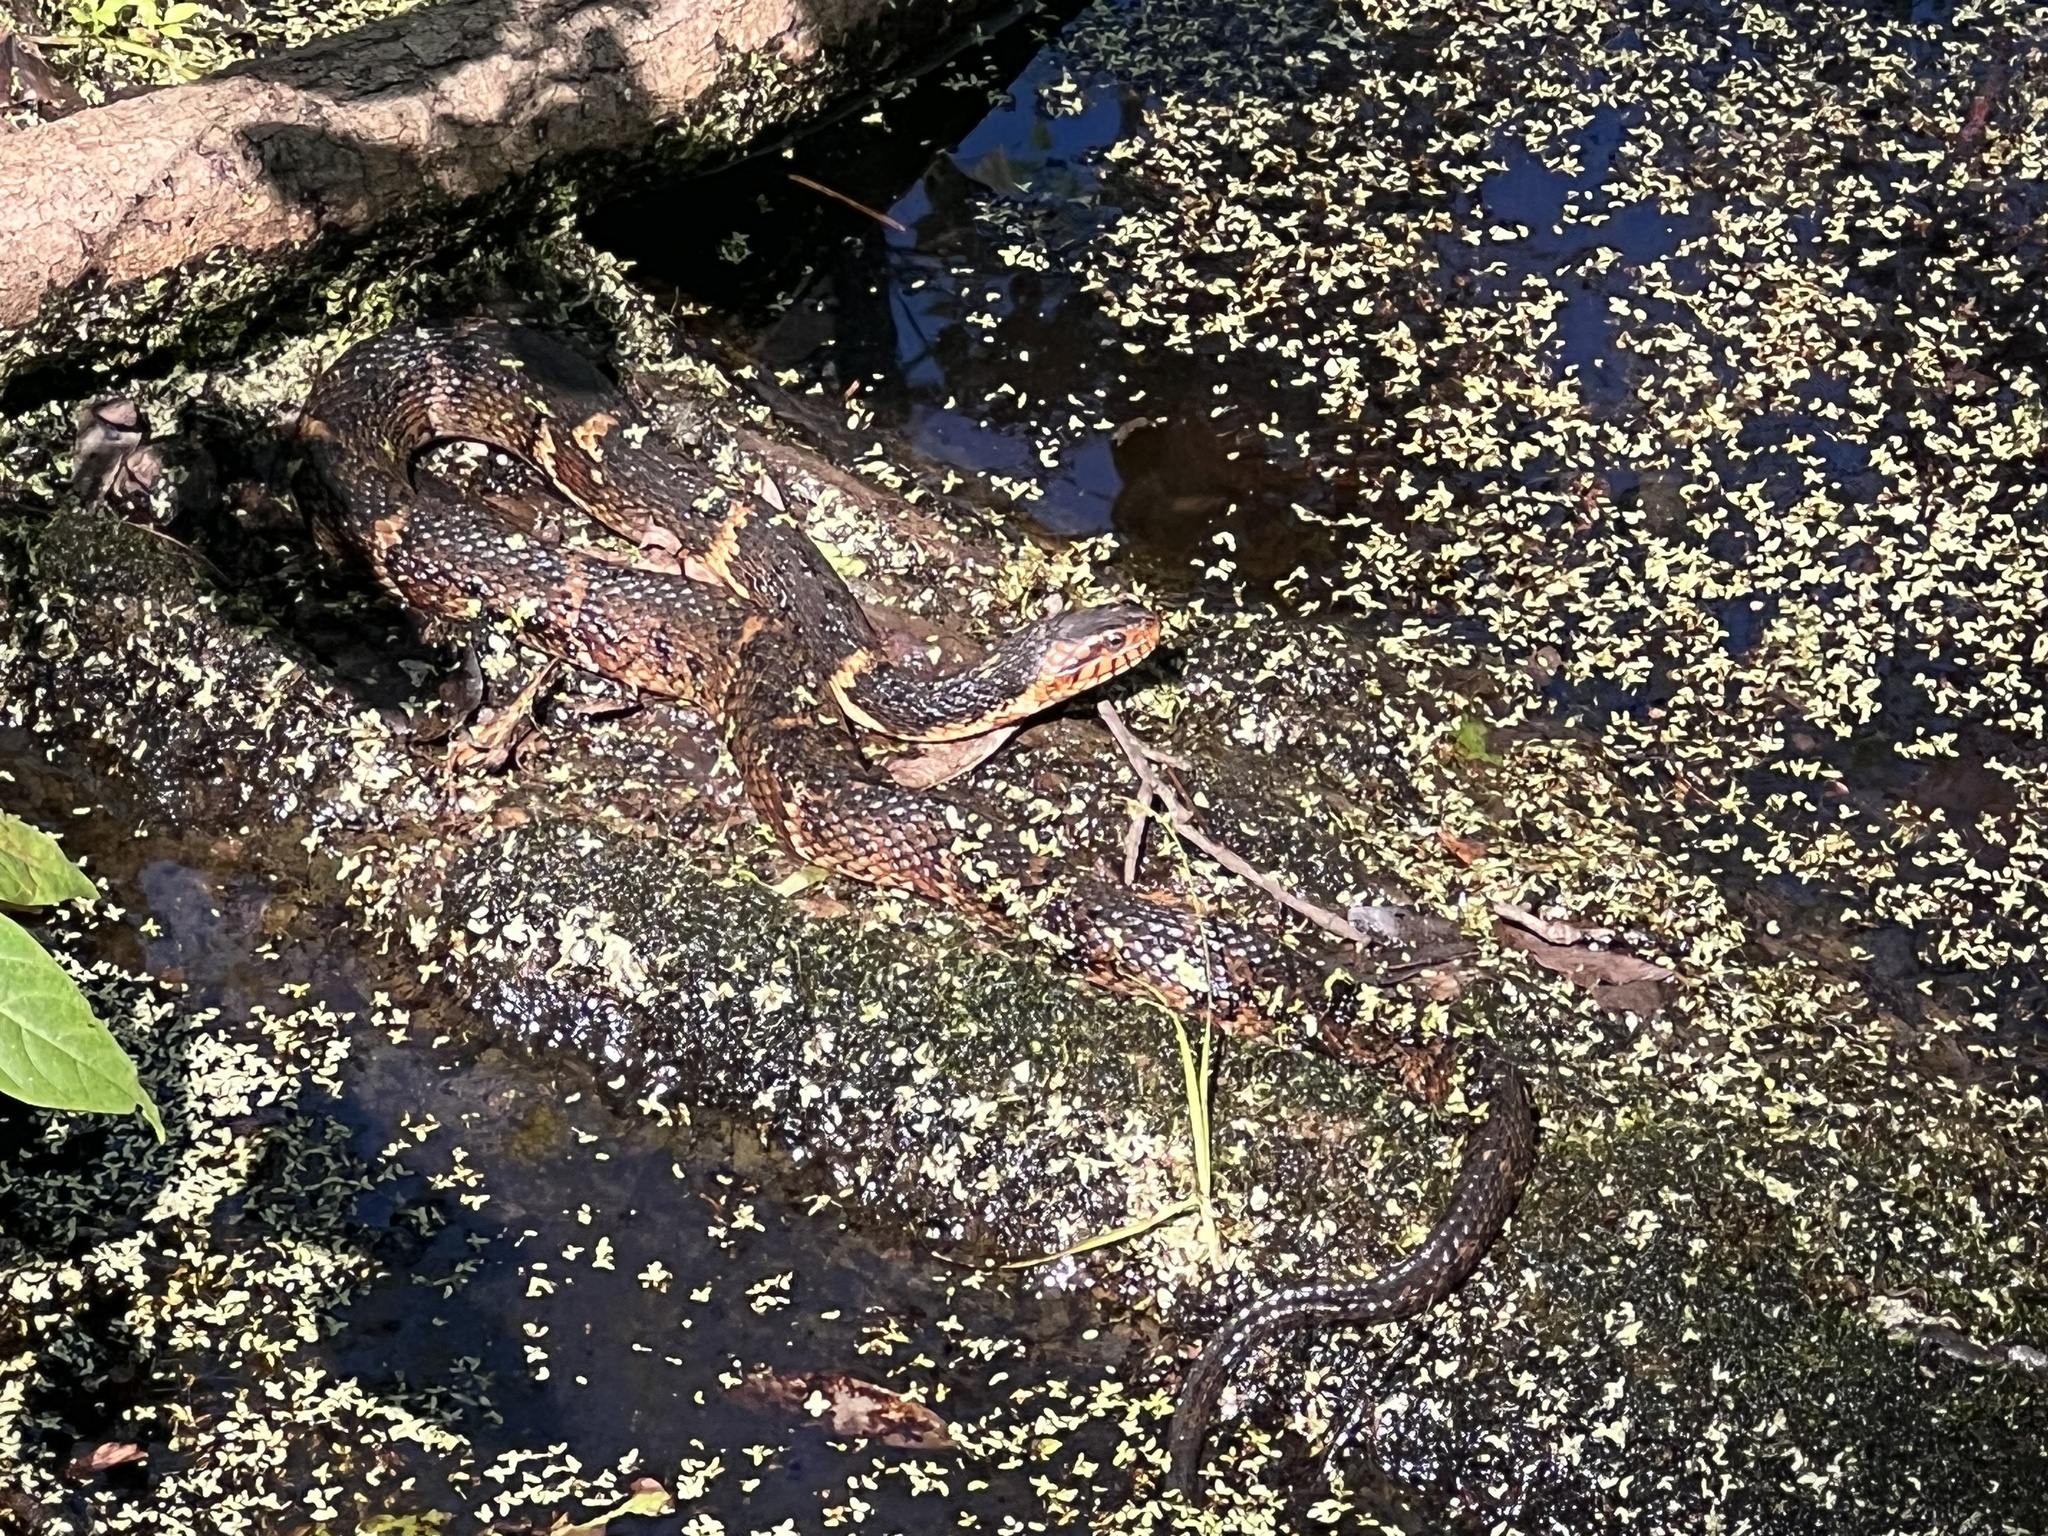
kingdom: Animalia
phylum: Chordata
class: Squamata
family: Colubridae
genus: Nerodia
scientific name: Nerodia fasciata
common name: Southern water snake
